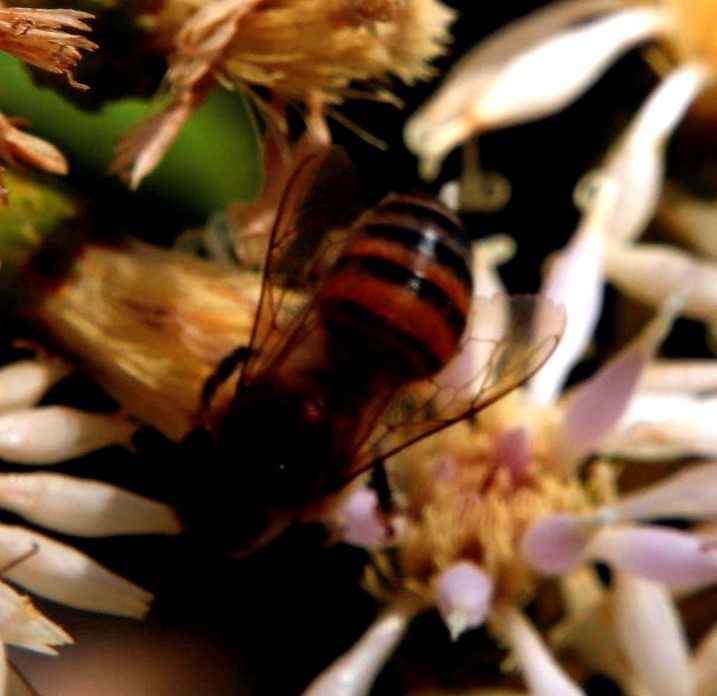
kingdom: Animalia
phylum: Arthropoda
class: Insecta
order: Hymenoptera
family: Apidae
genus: Apis
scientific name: Apis mellifera
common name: Honey bee
